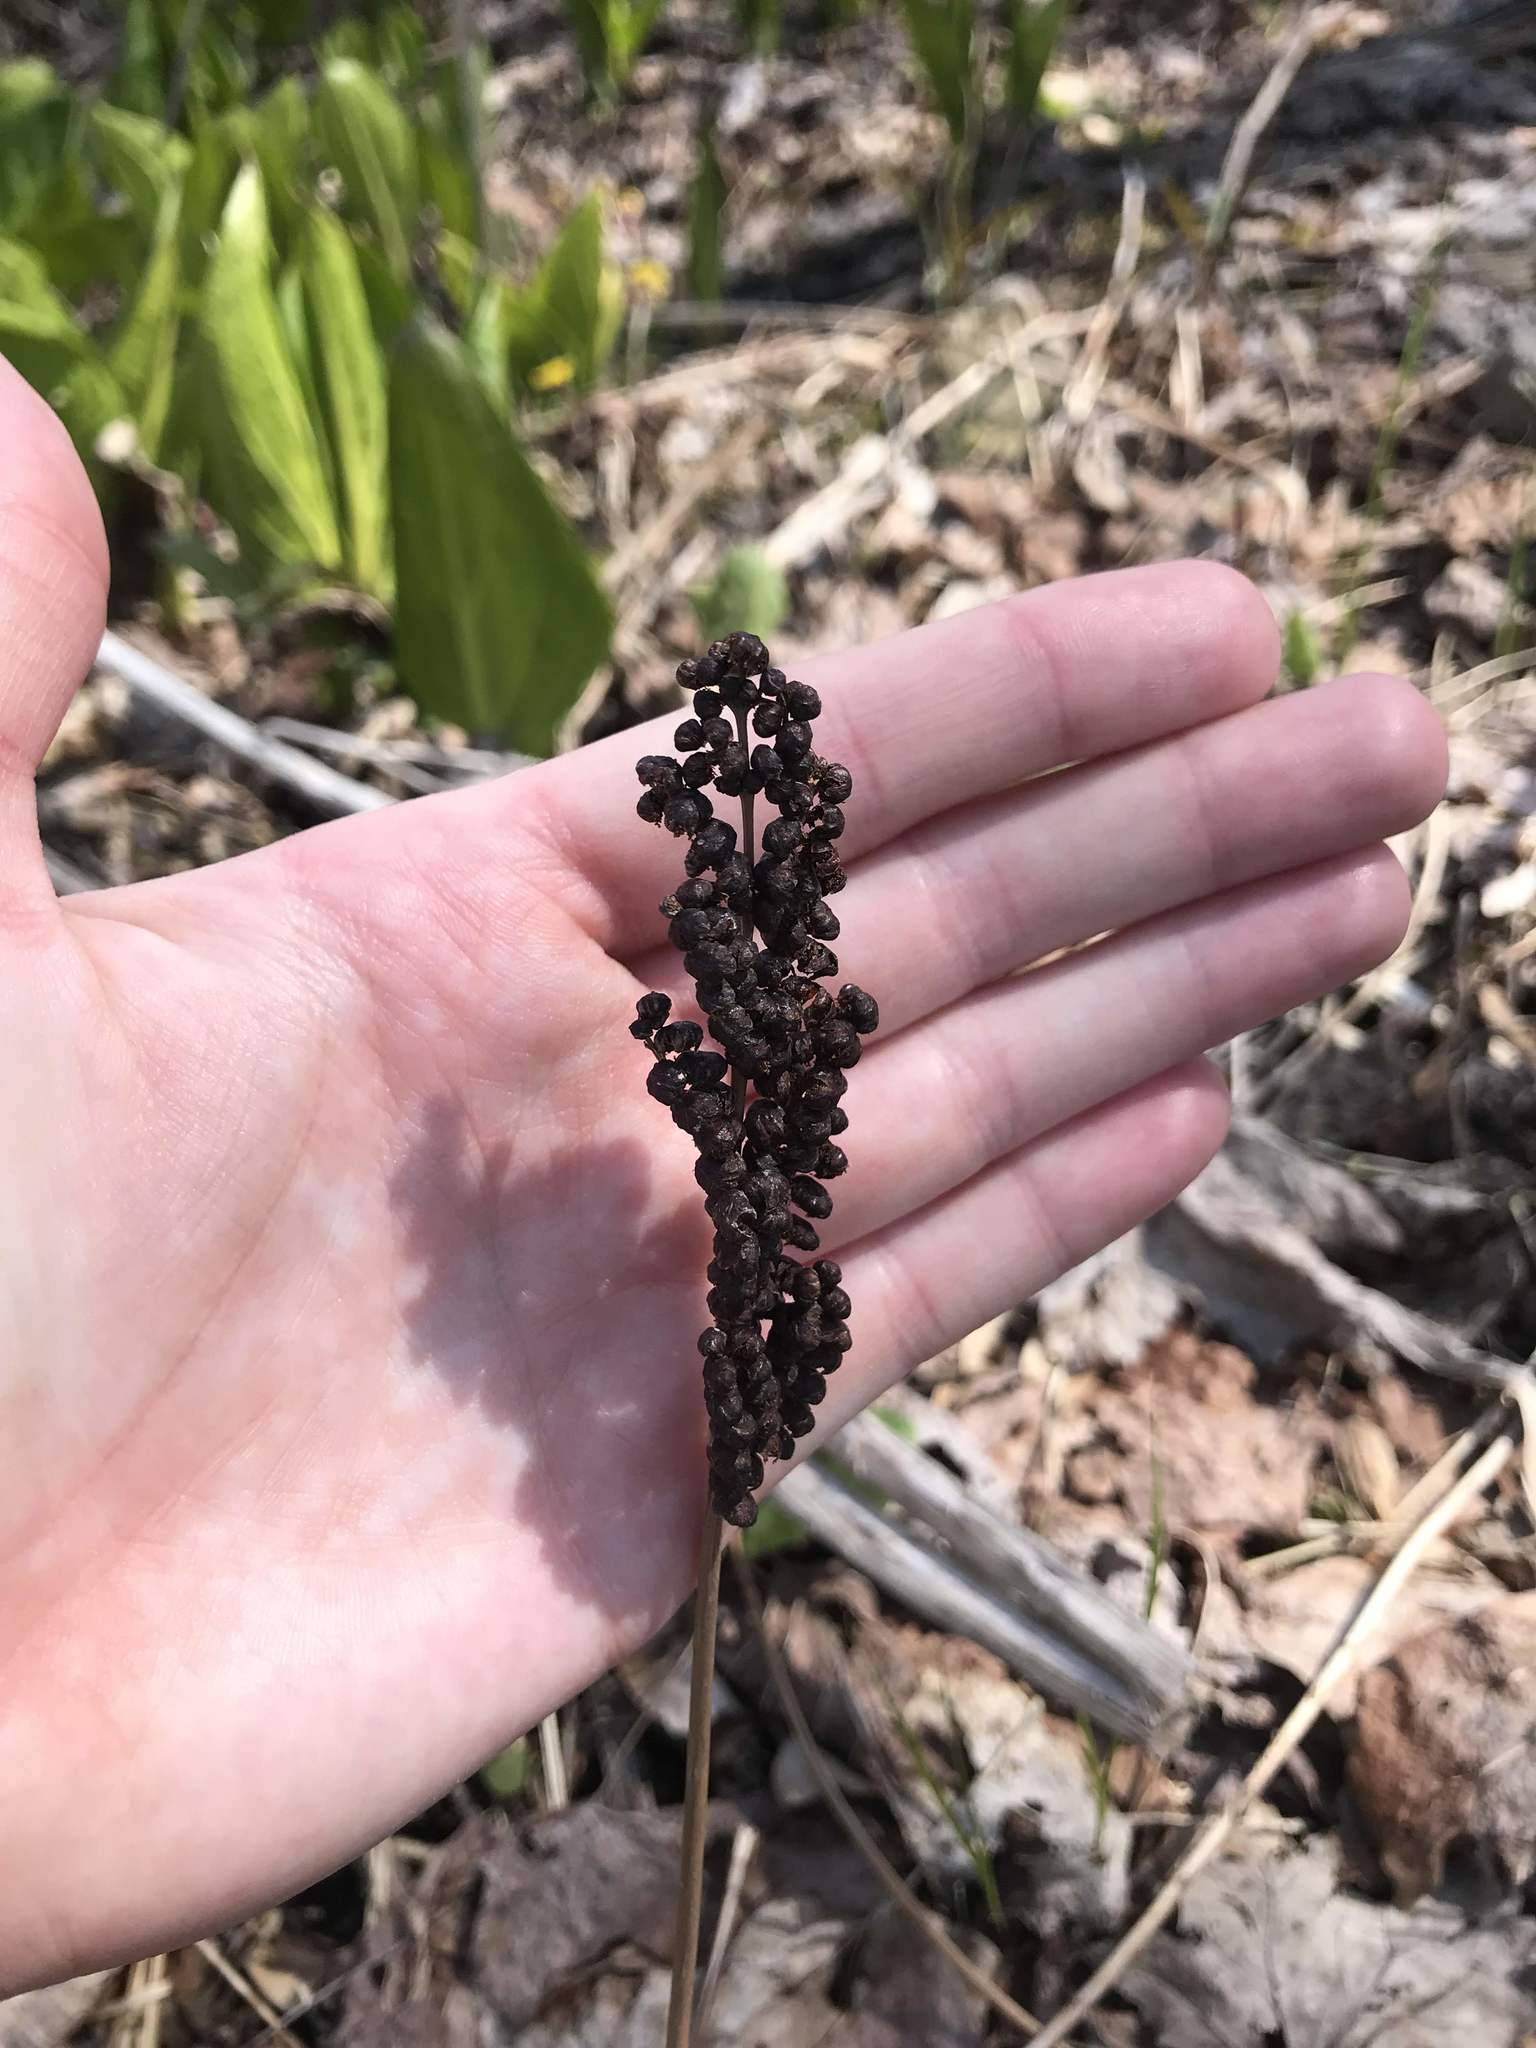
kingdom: Plantae
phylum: Tracheophyta
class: Polypodiopsida
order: Polypodiales
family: Onocleaceae
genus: Onoclea
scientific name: Onoclea sensibilis
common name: Sensitive fern
